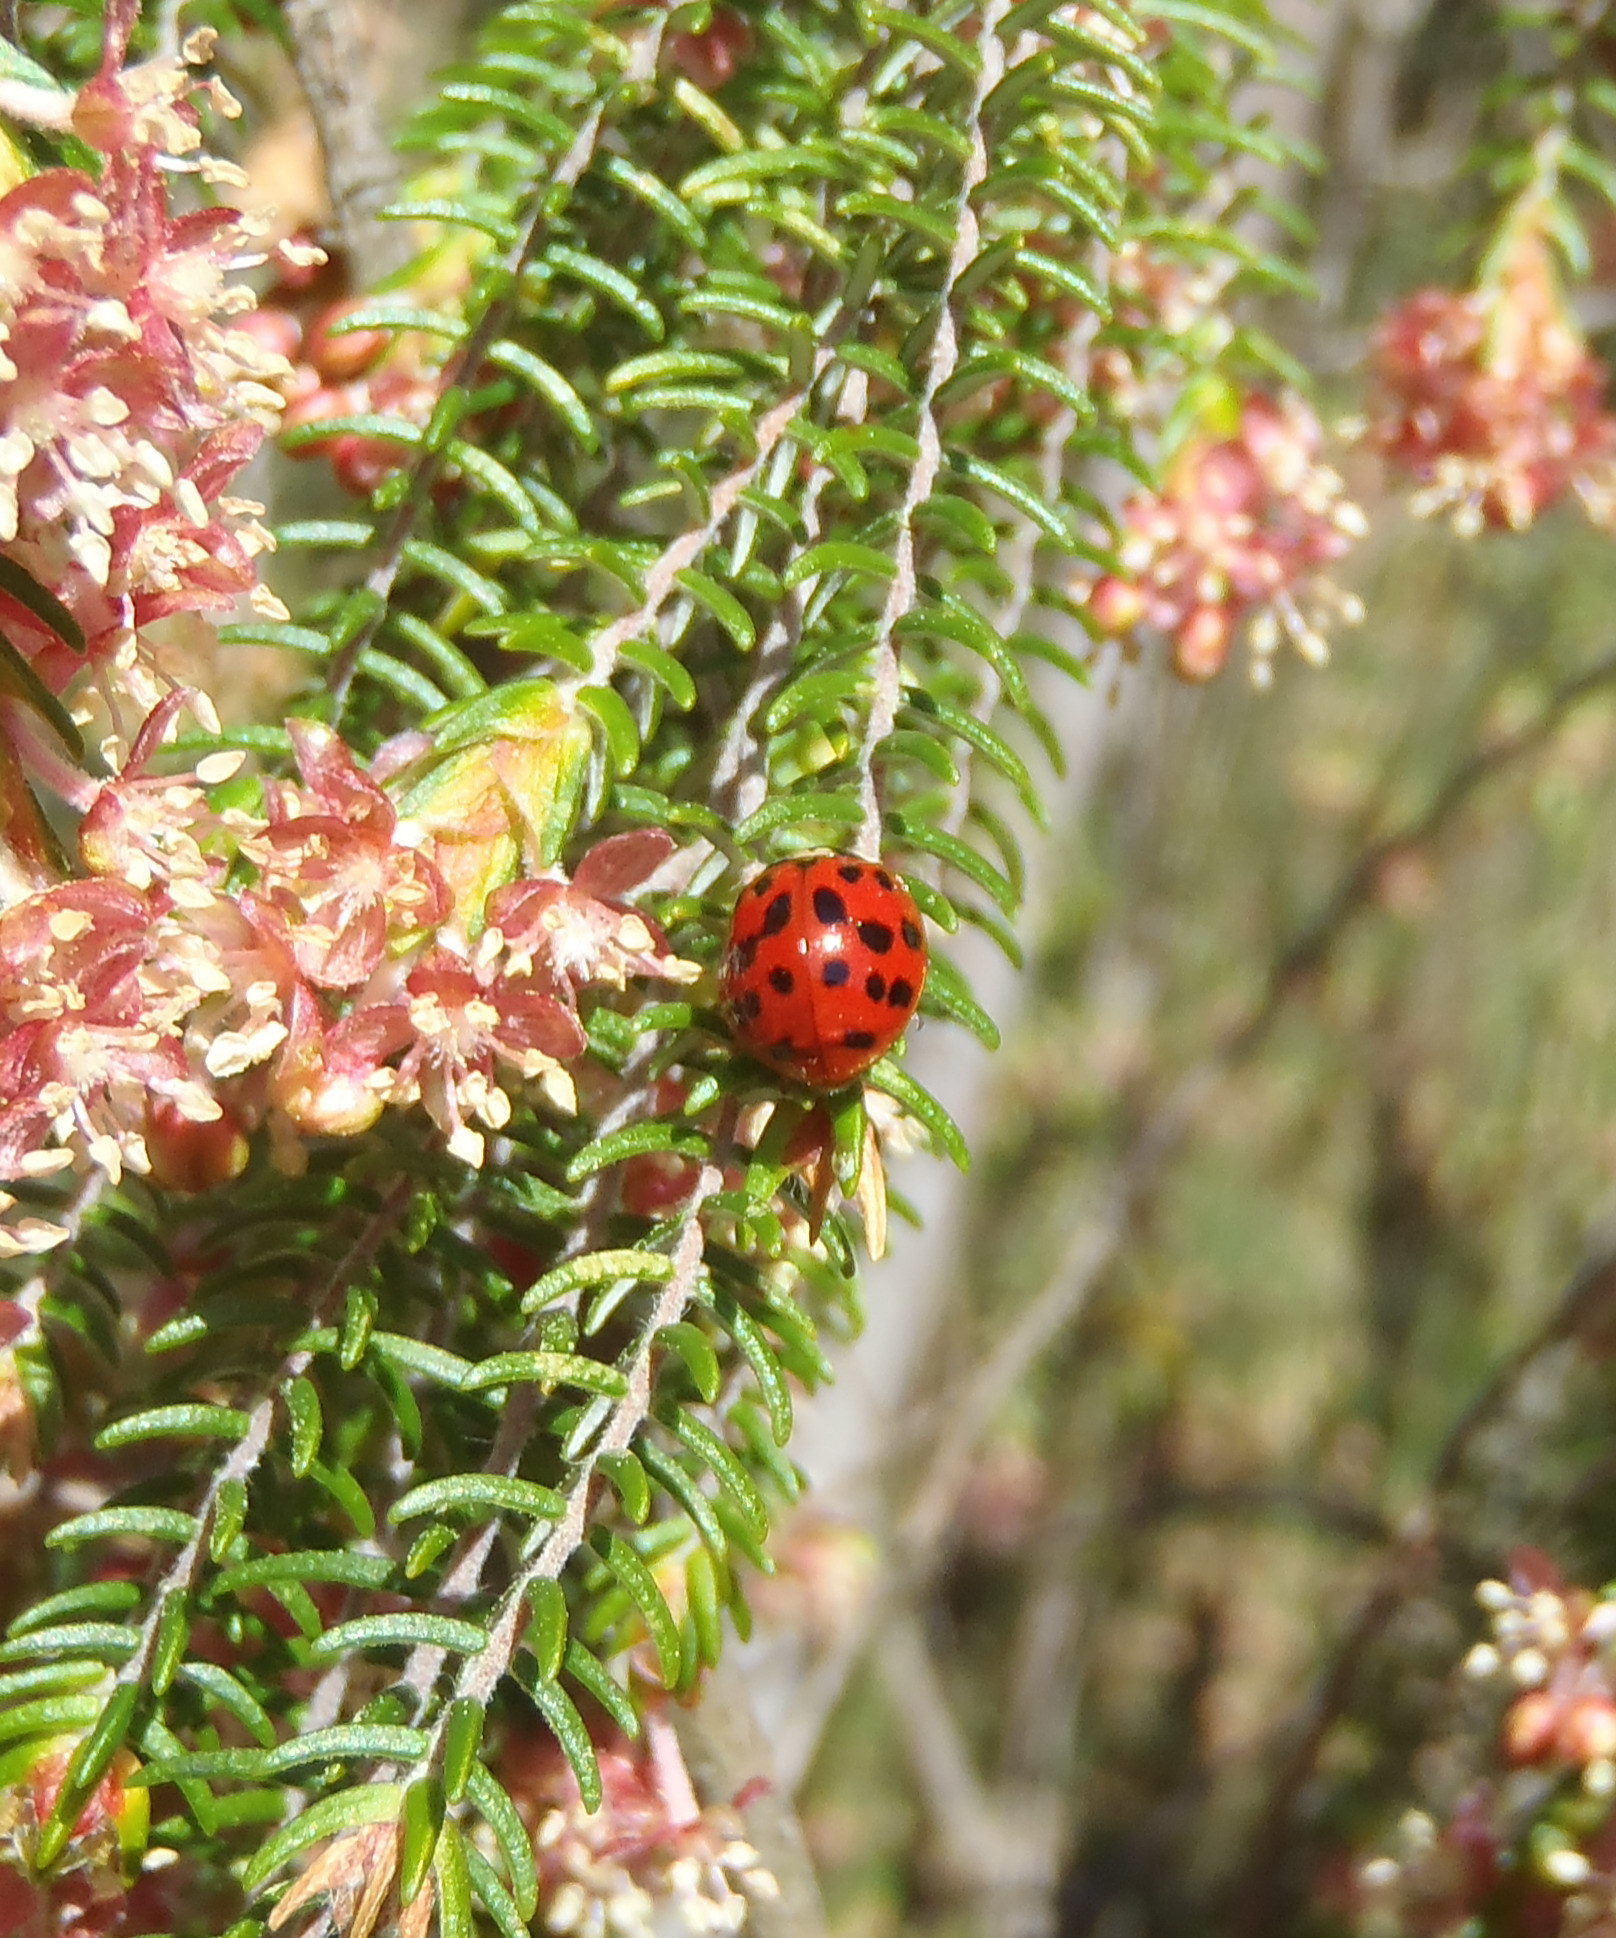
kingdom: Animalia
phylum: Arthropoda
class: Insecta
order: Coleoptera
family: Coccinellidae
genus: Harmonia
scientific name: Harmonia axyridis
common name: Harlequin ladybird
